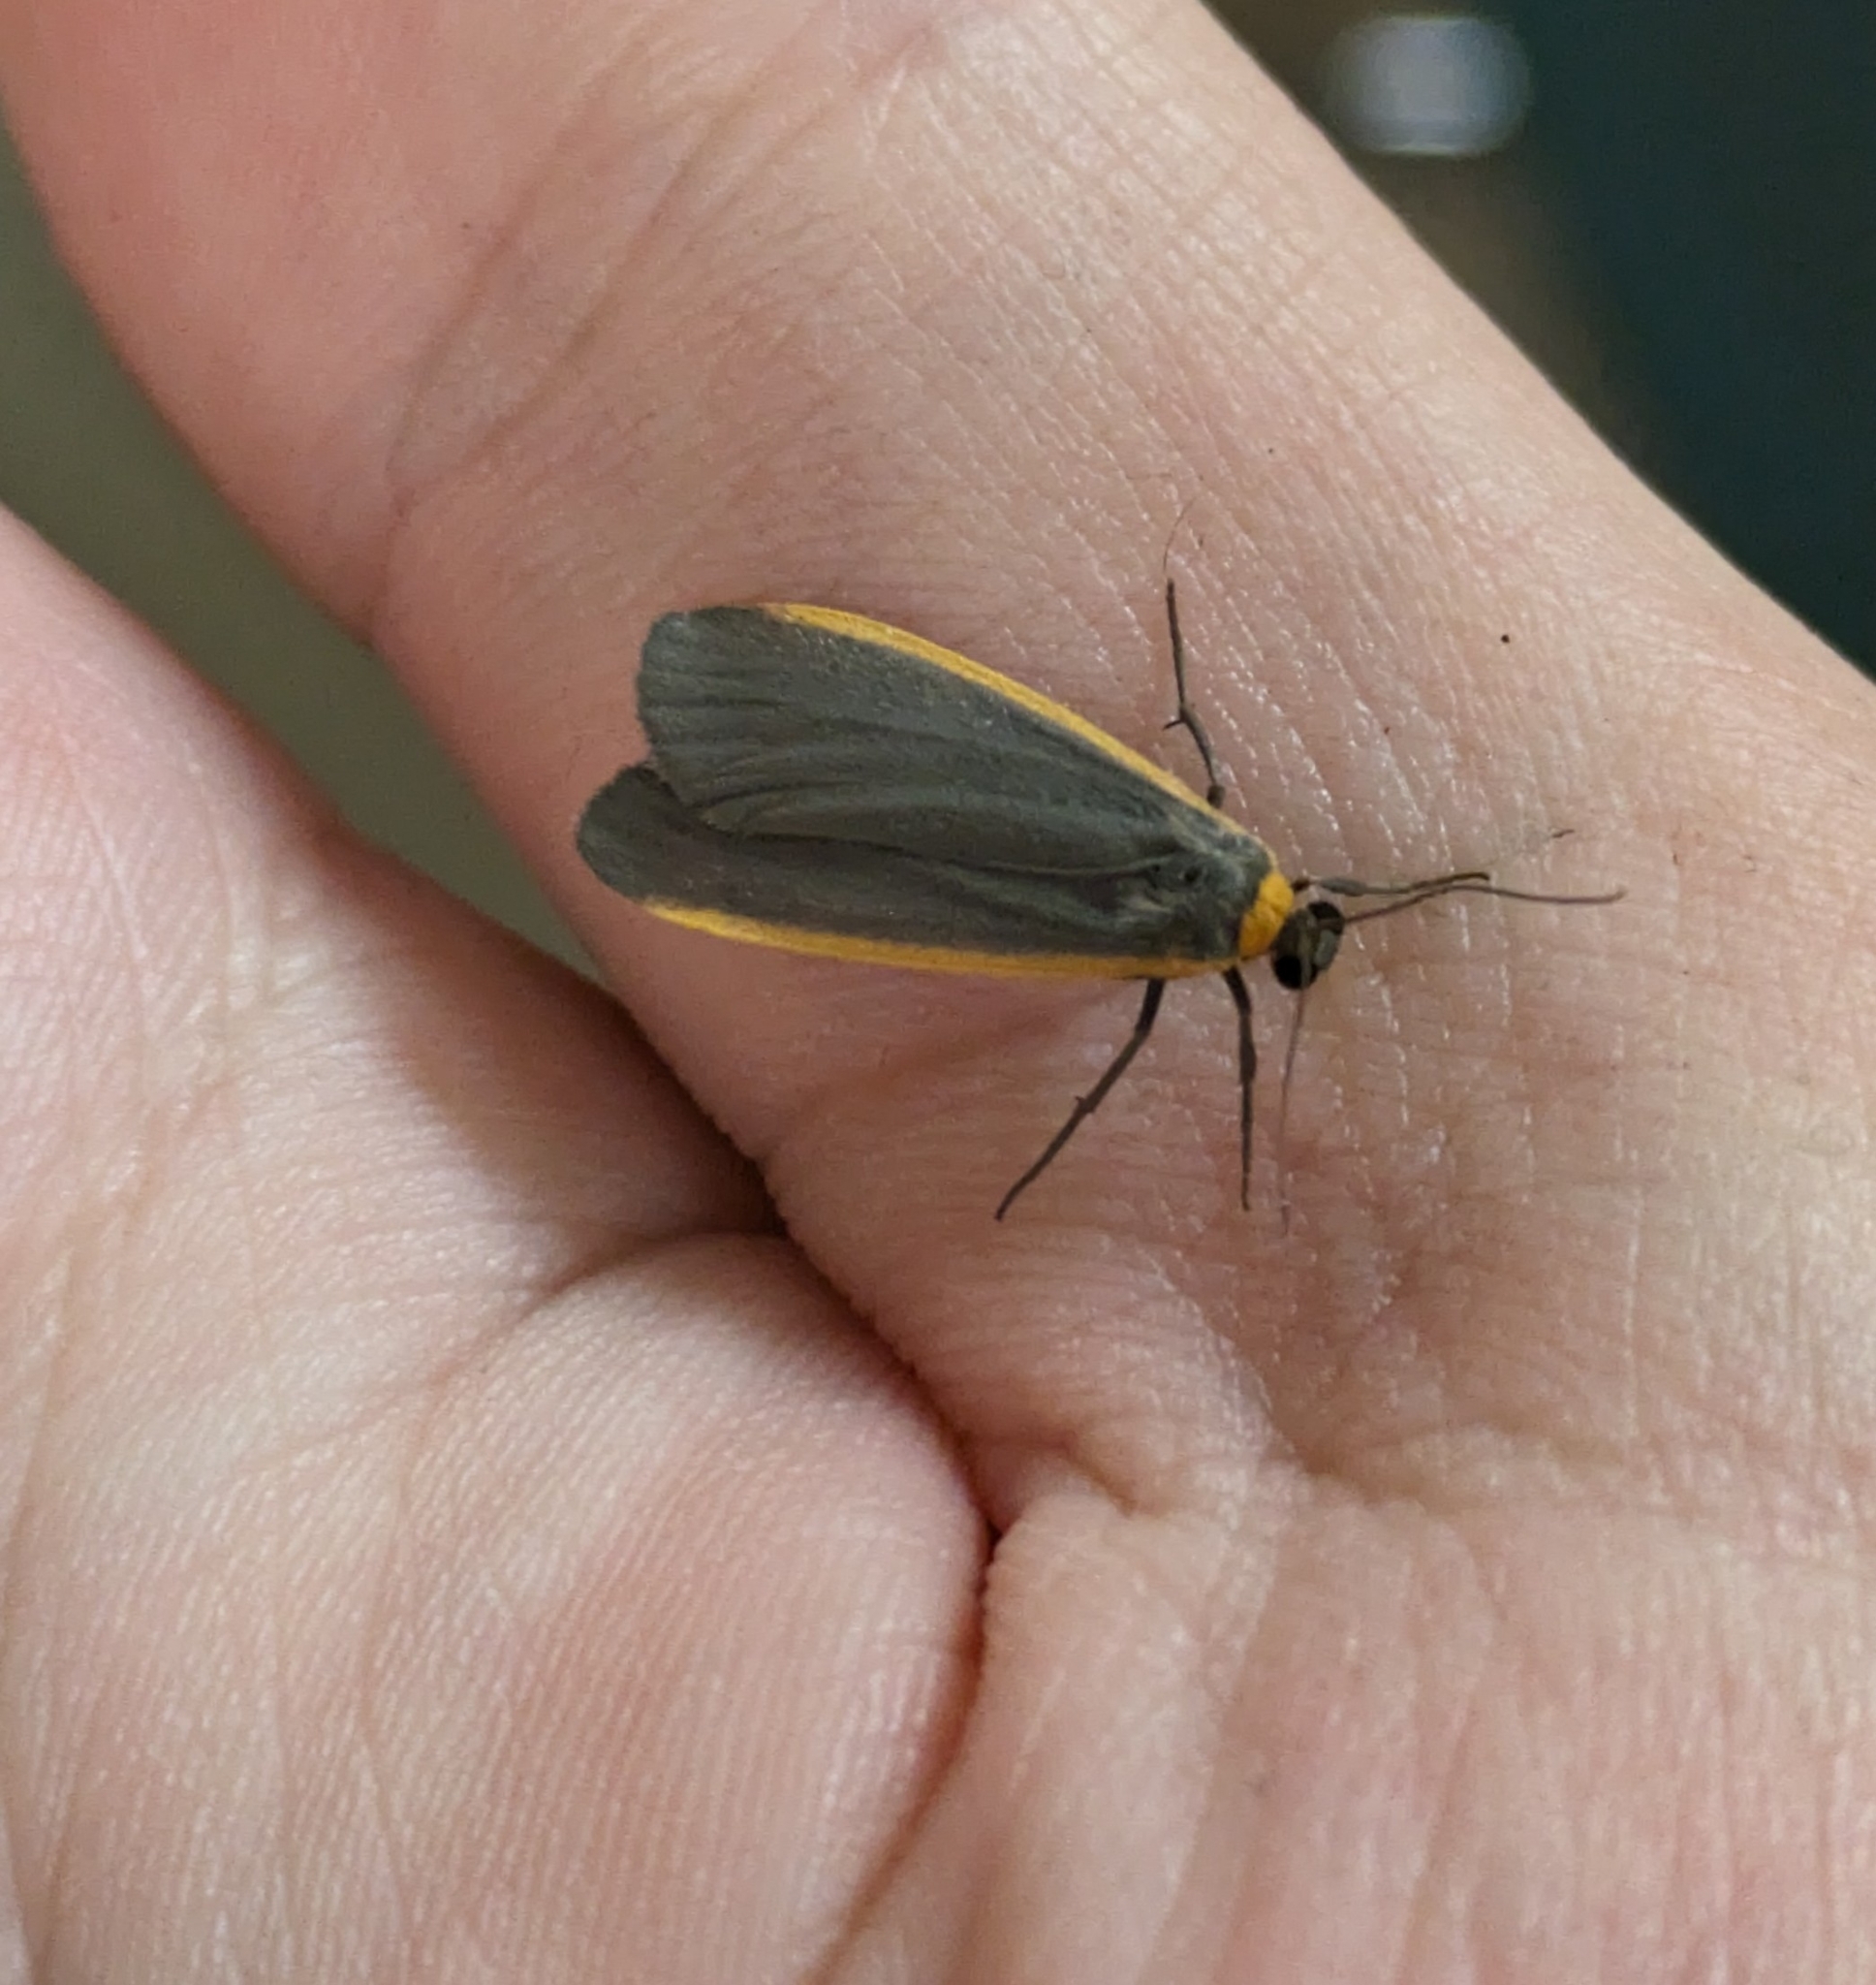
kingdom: Animalia
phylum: Arthropoda
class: Insecta
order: Lepidoptera
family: Erebidae
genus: Manulea
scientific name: Manulea bicolor
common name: Bicolored moth
